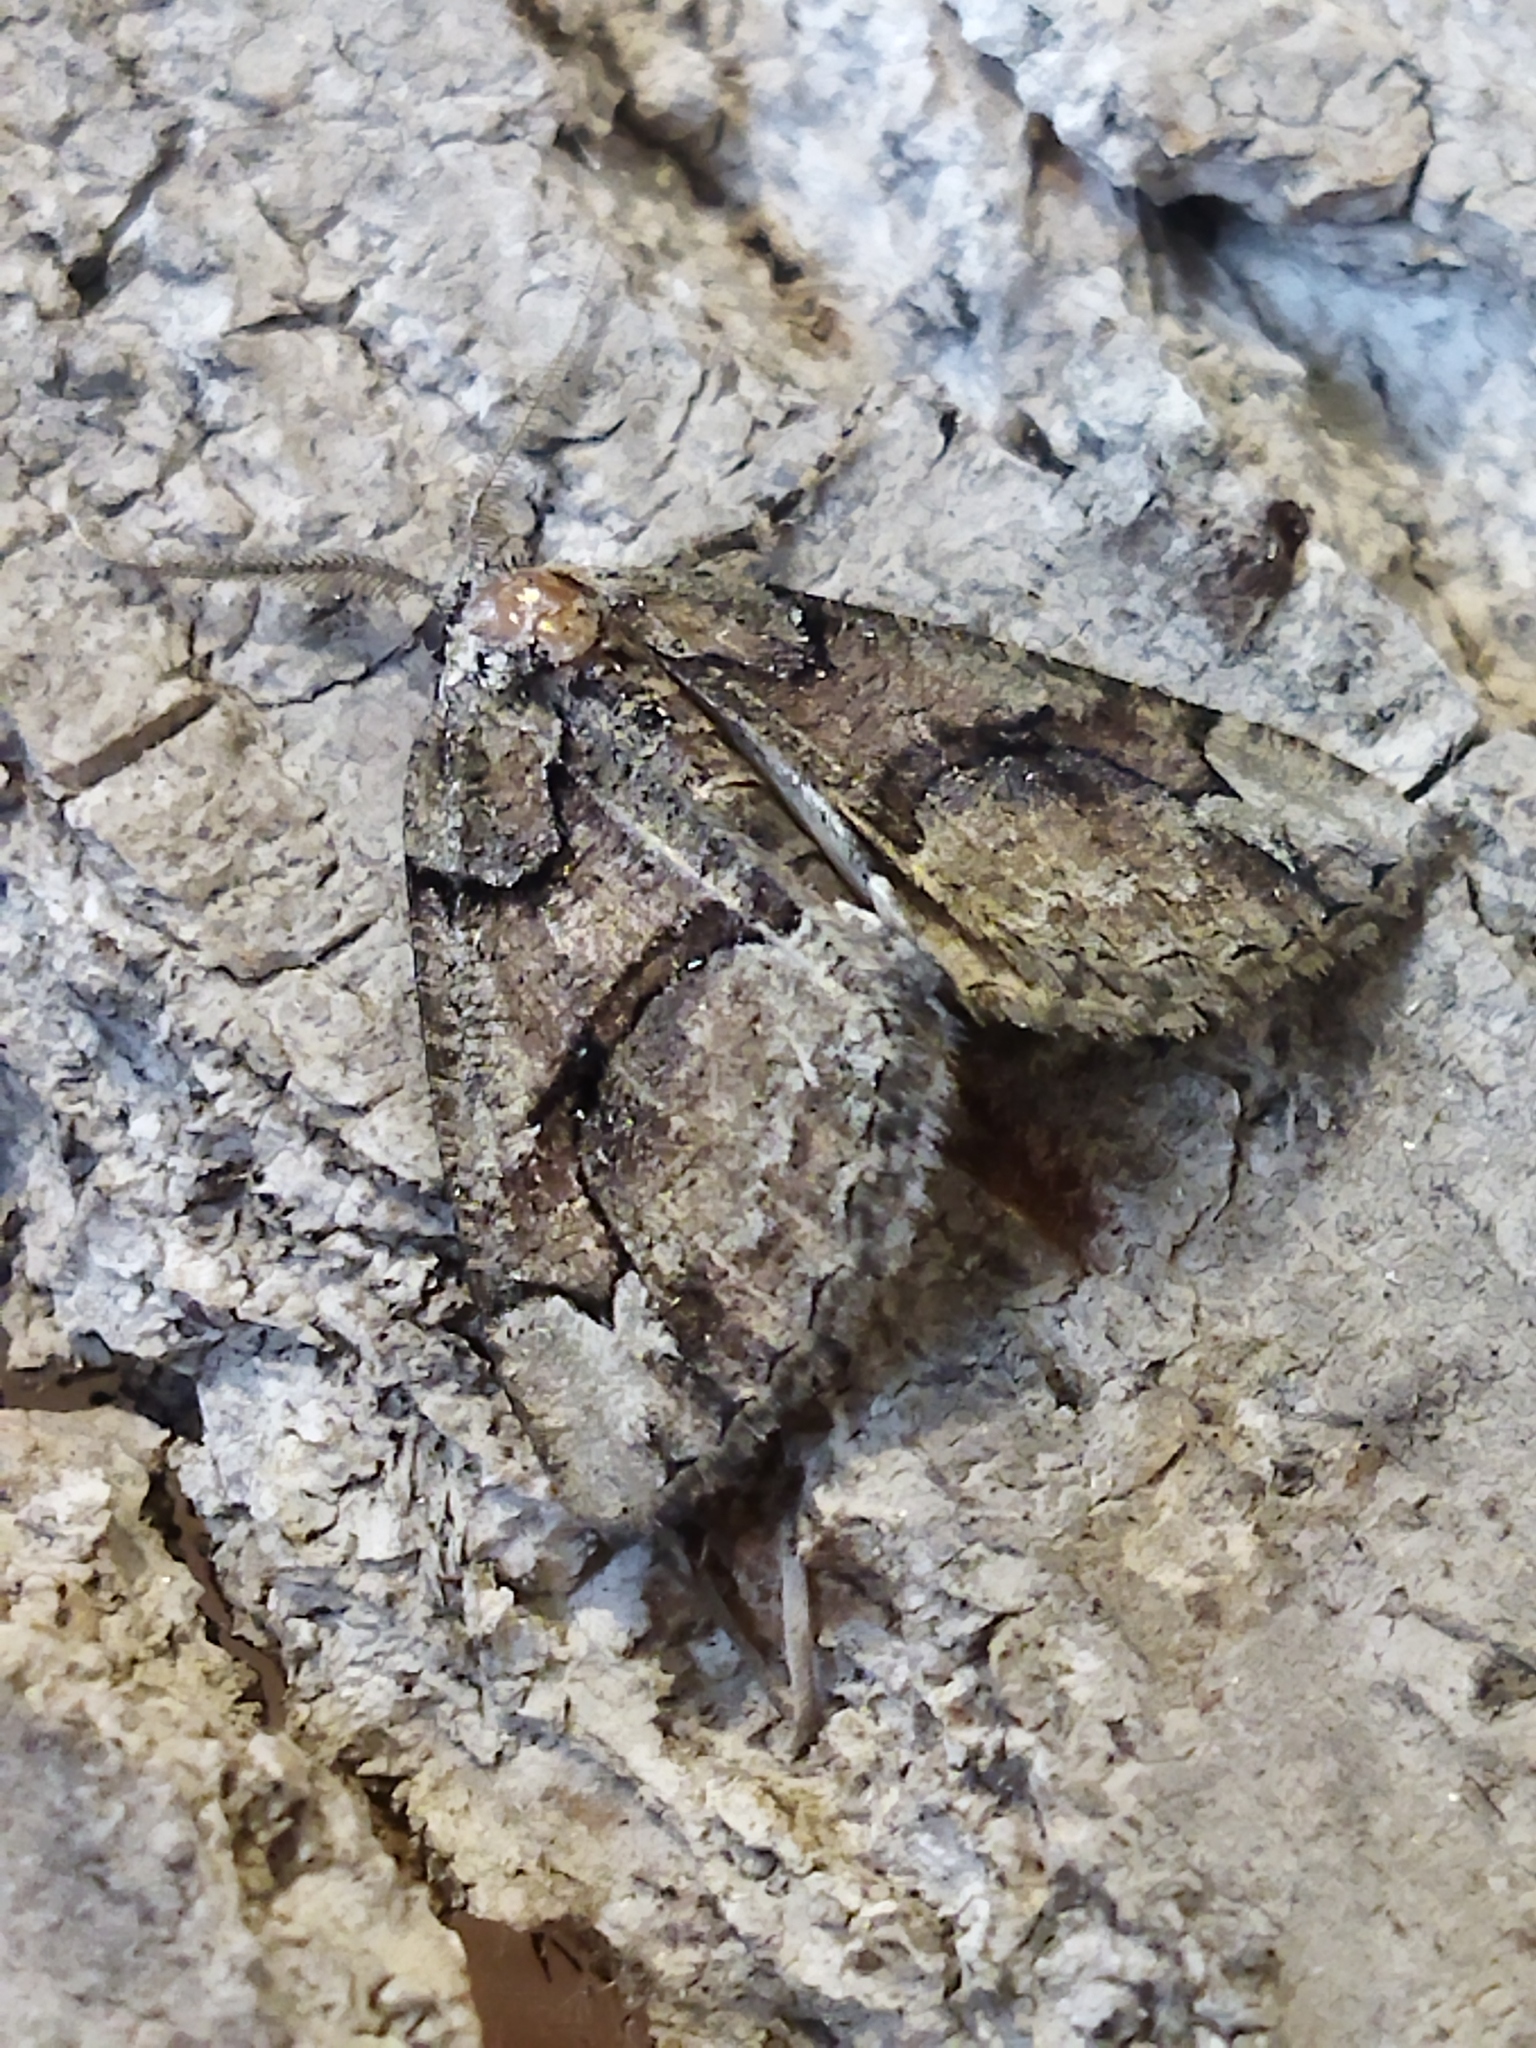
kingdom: Animalia
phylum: Arthropoda
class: Insecta
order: Lepidoptera
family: Geometridae
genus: Asovia
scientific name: Asovia maeoticaria
